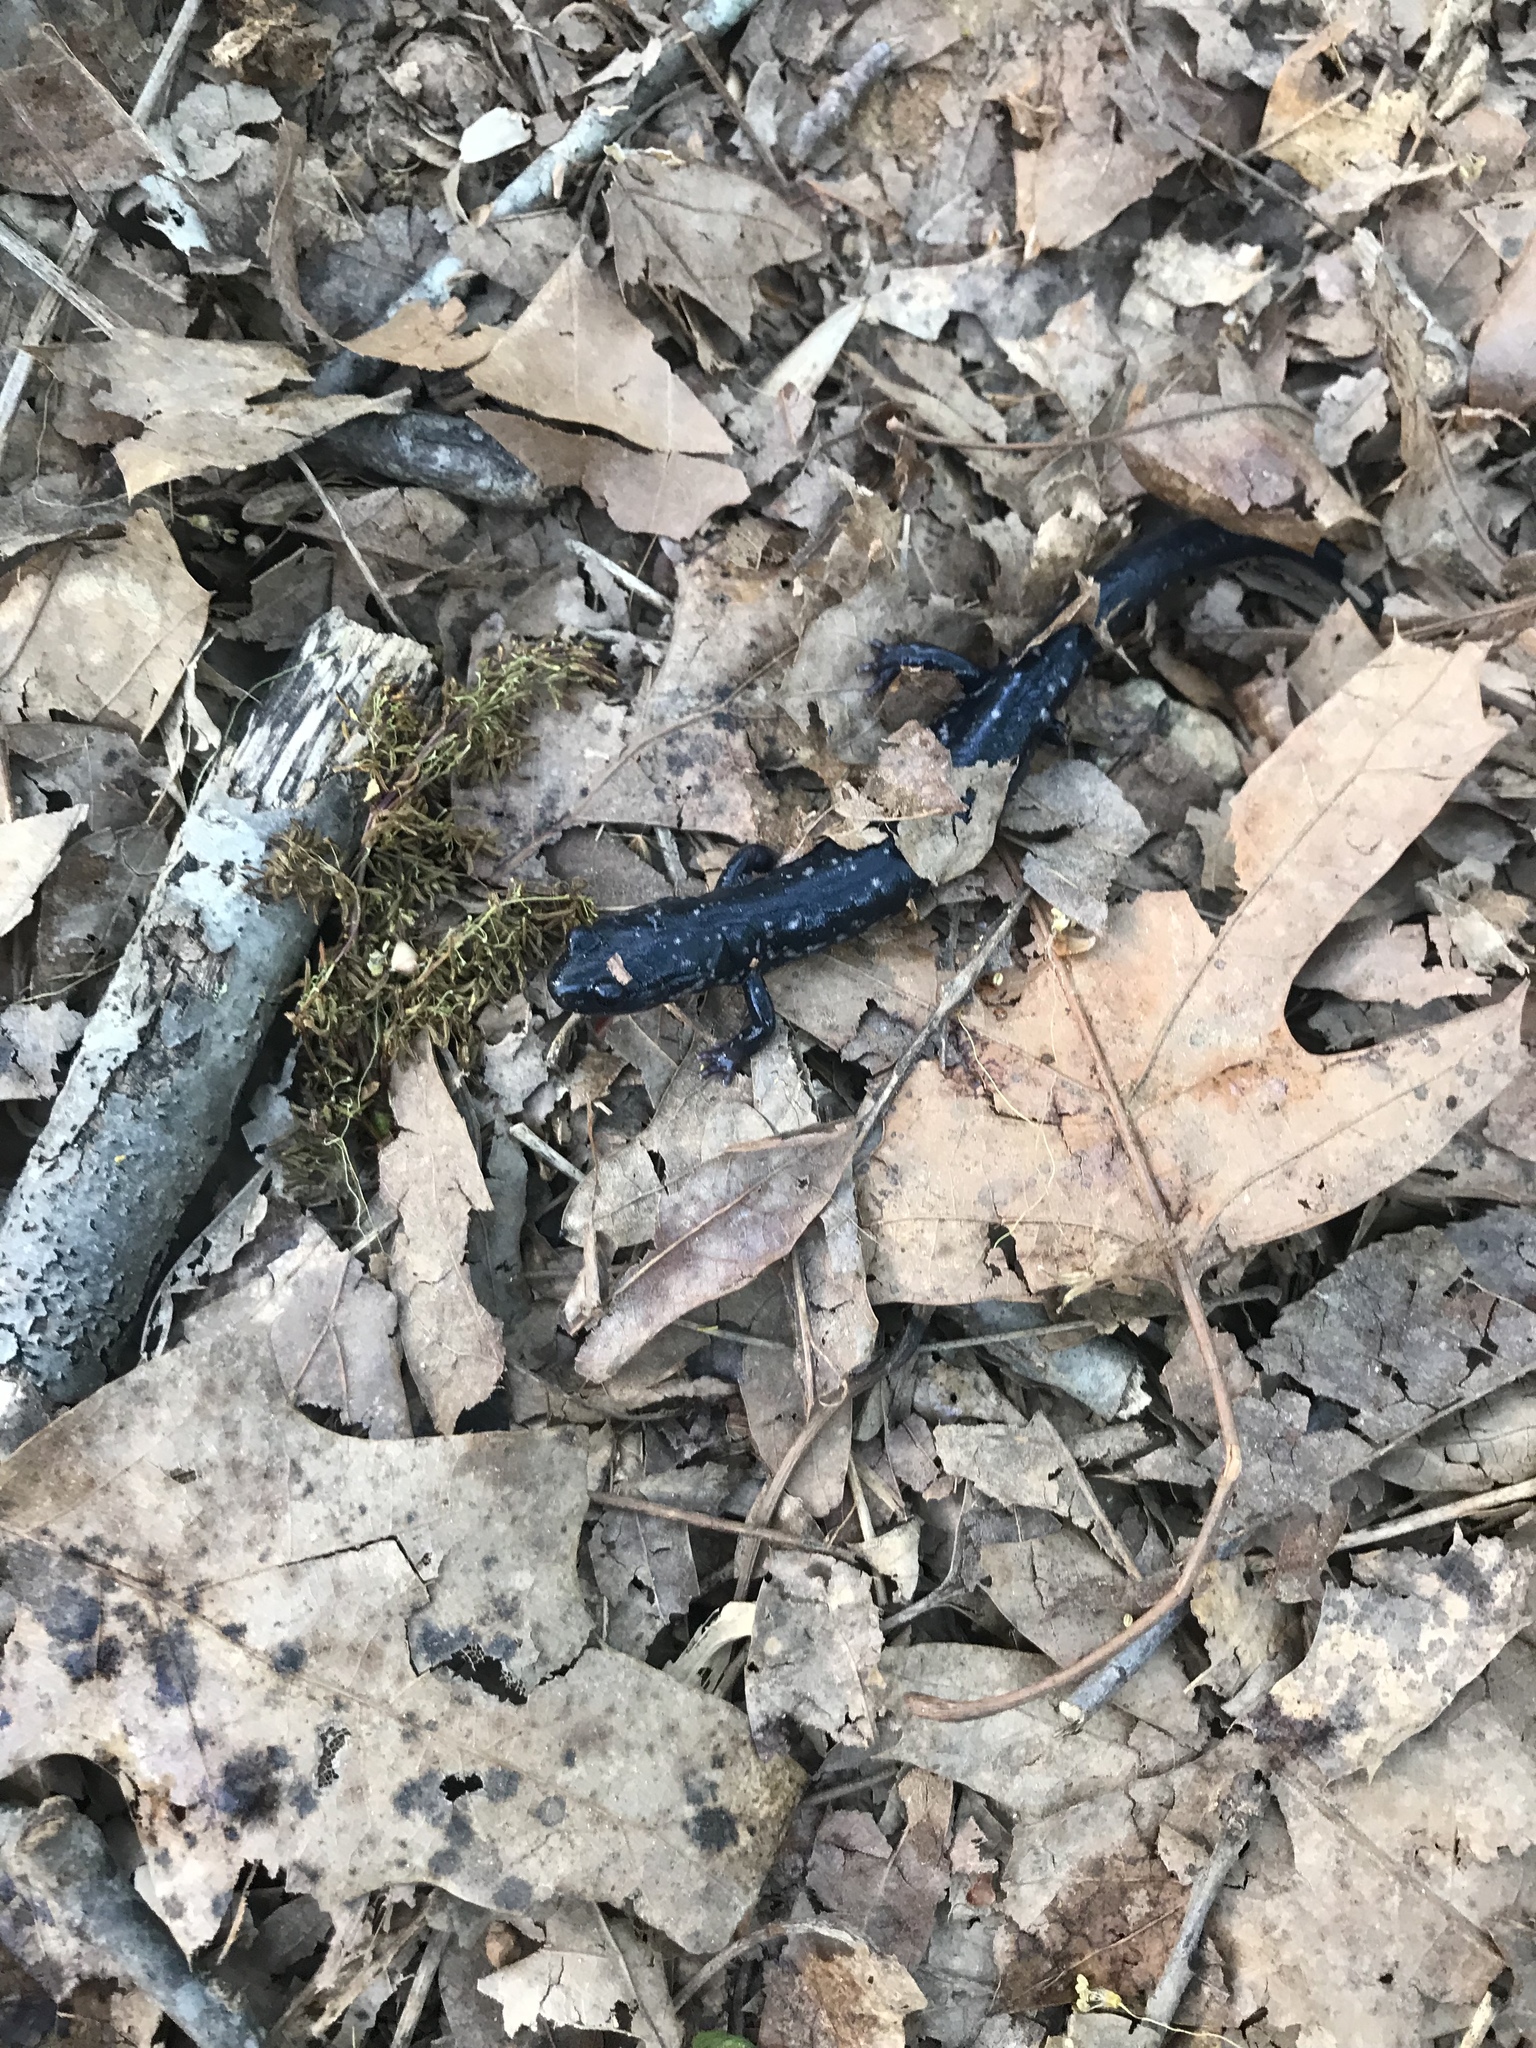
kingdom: Animalia
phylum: Chordata
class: Amphibia
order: Caudata
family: Plethodontidae
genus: Plethodon
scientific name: Plethodon cylindraceus
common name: White-spotted slimy salamander
